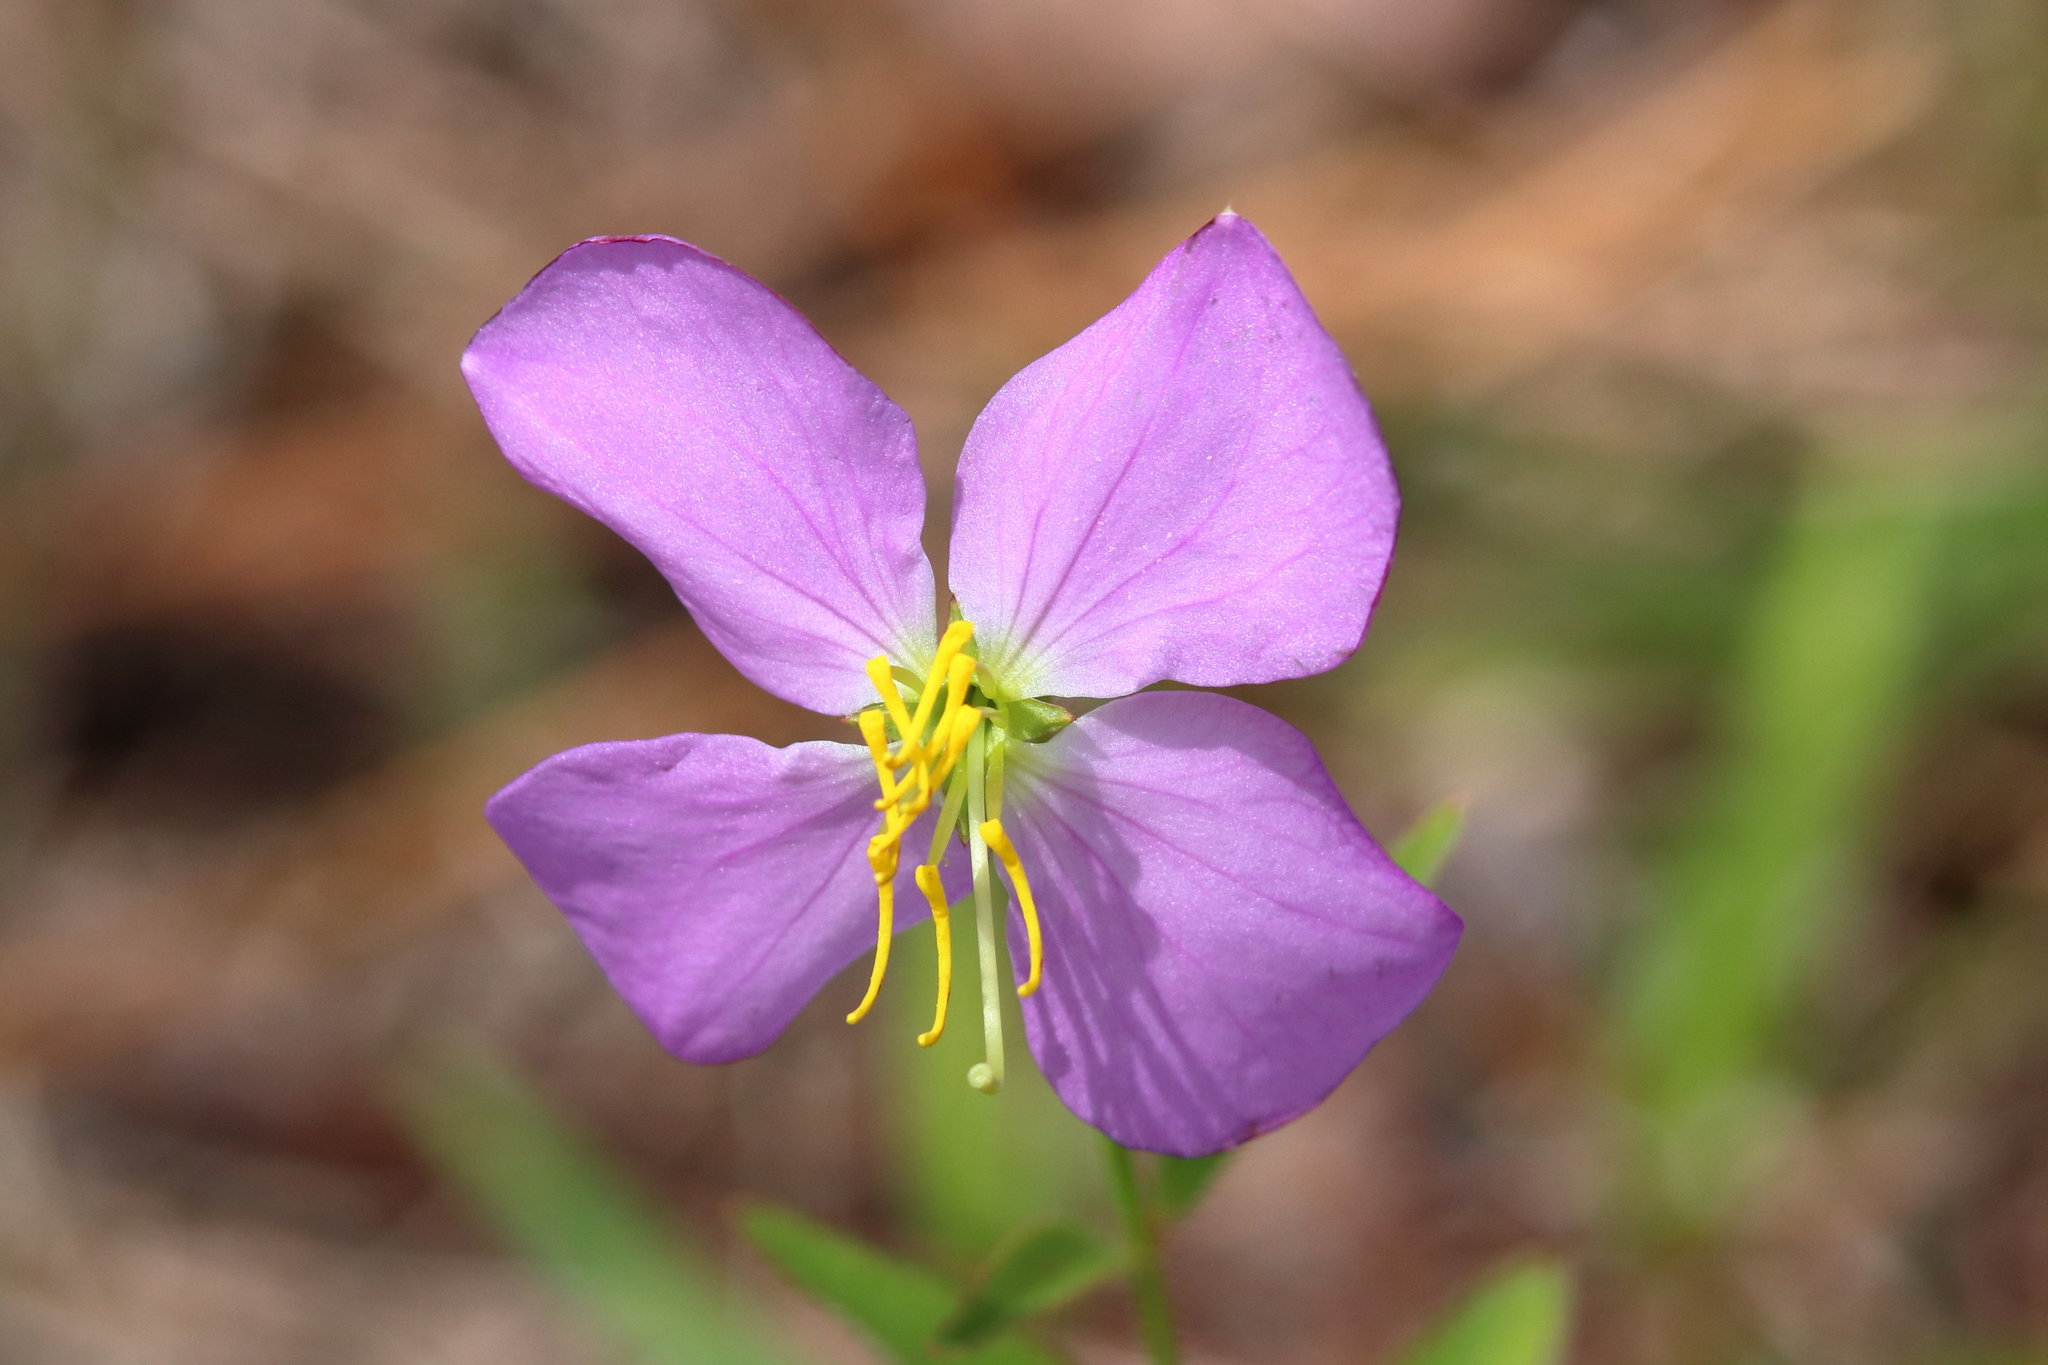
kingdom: Plantae
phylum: Tracheophyta
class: Magnoliopsida
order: Myrtales
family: Melastomataceae
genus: Rhexia
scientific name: Rhexia nashii
